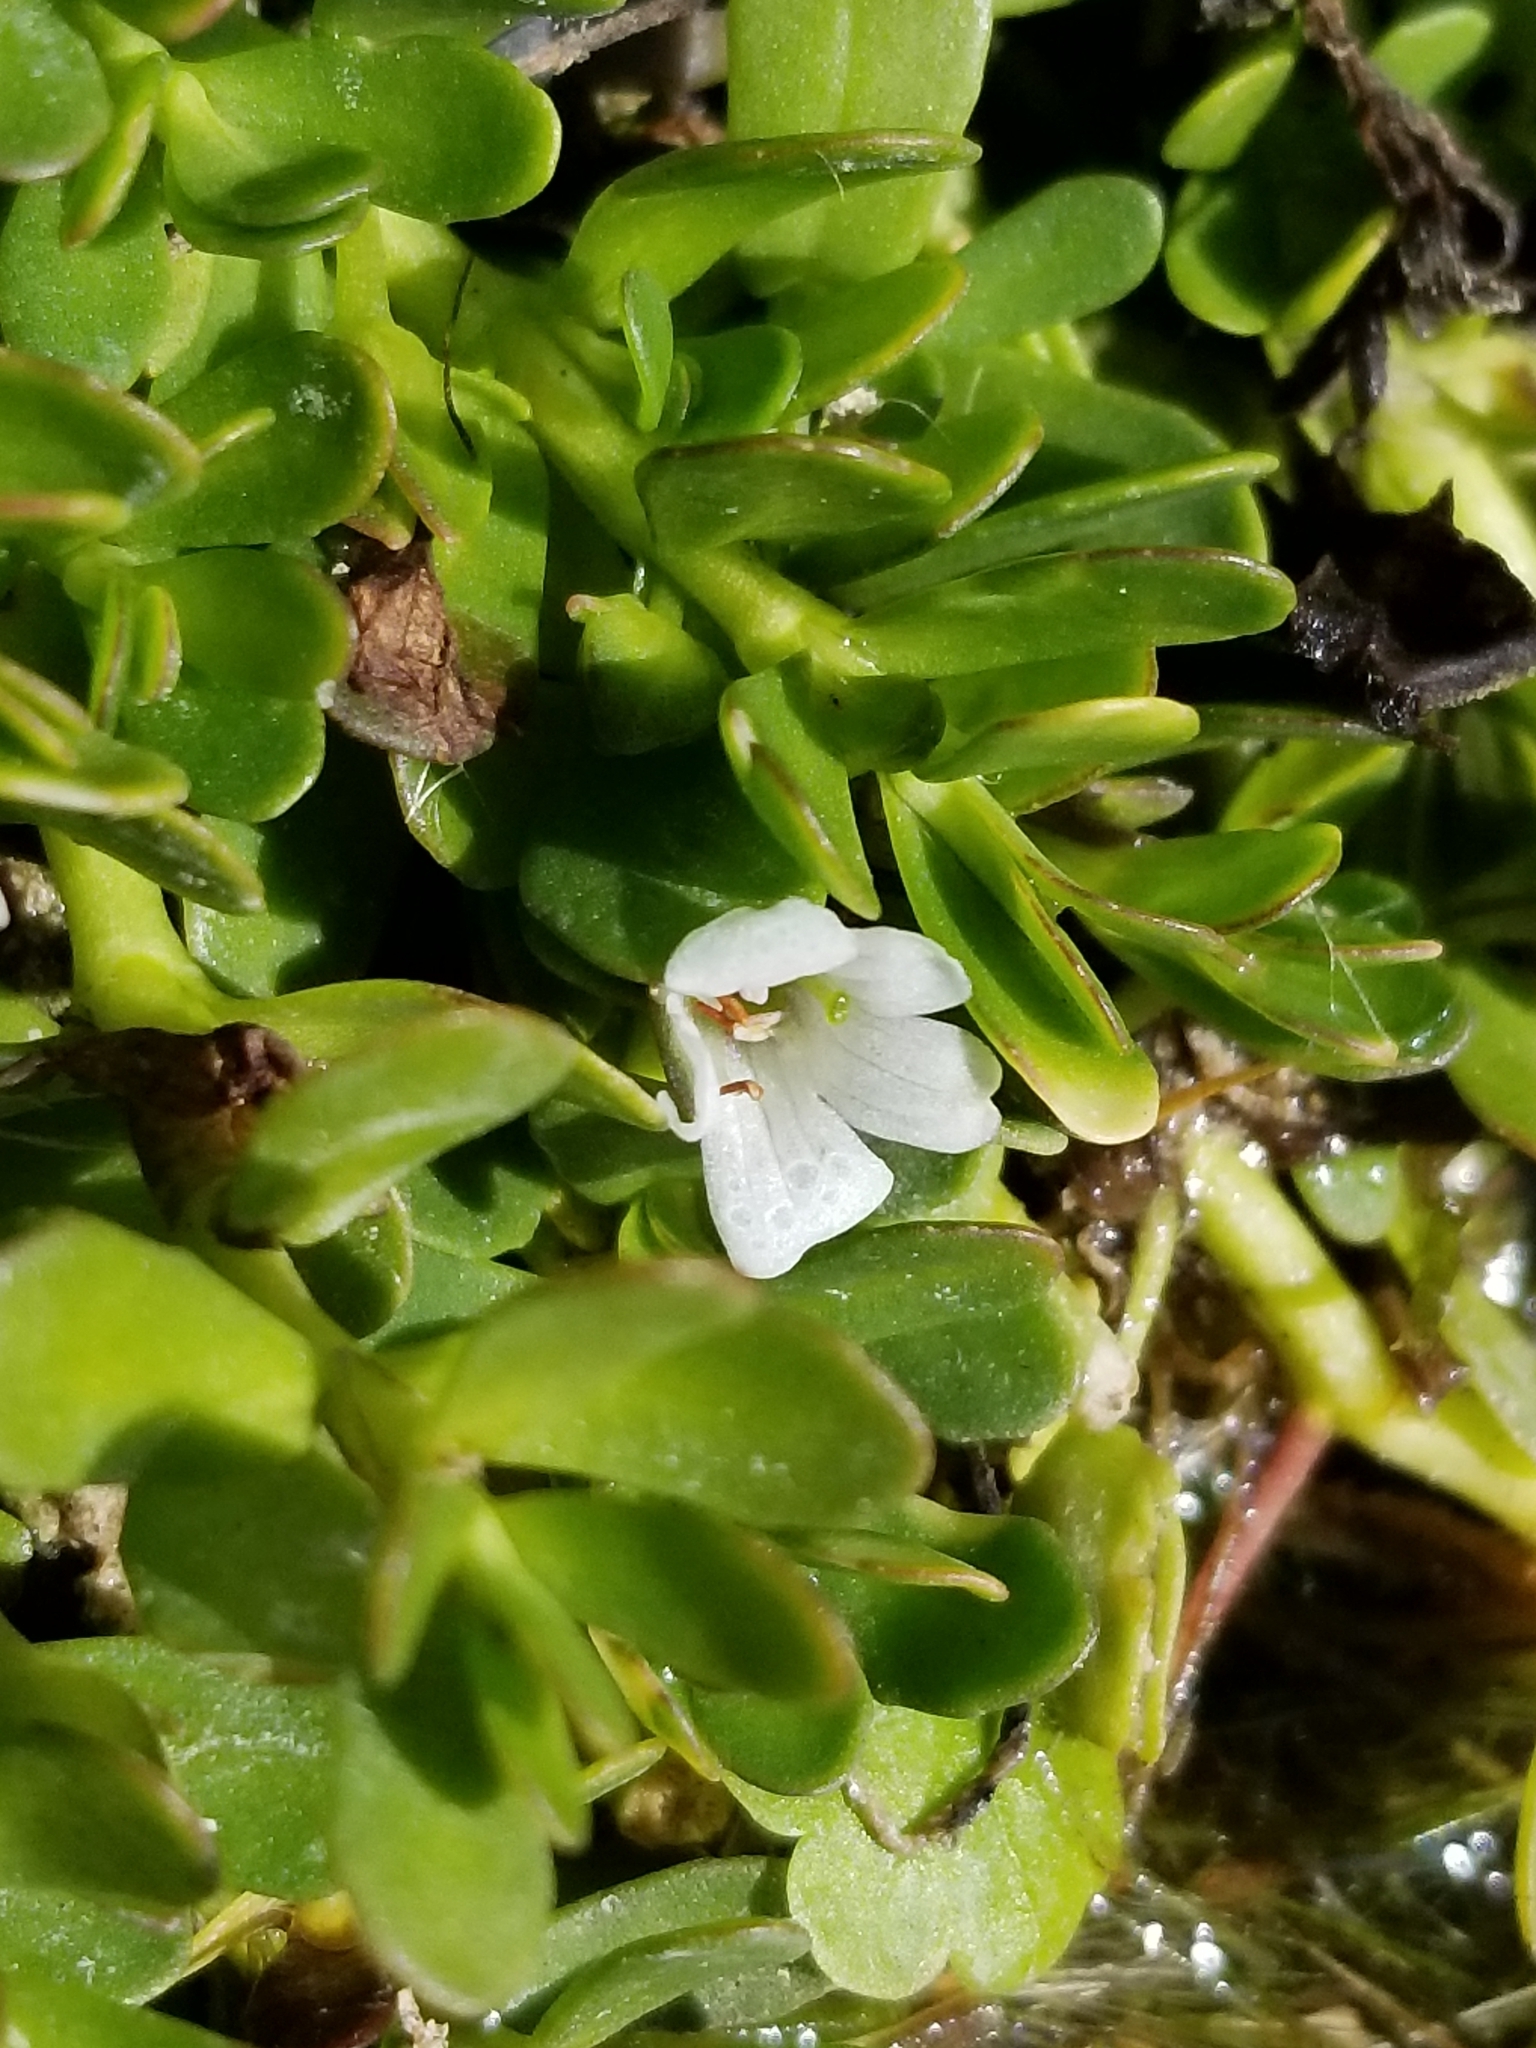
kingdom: Plantae
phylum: Tracheophyta
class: Magnoliopsida
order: Lamiales
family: Plantaginaceae
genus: Bacopa
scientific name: Bacopa monnieri
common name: Indian-pennywort
